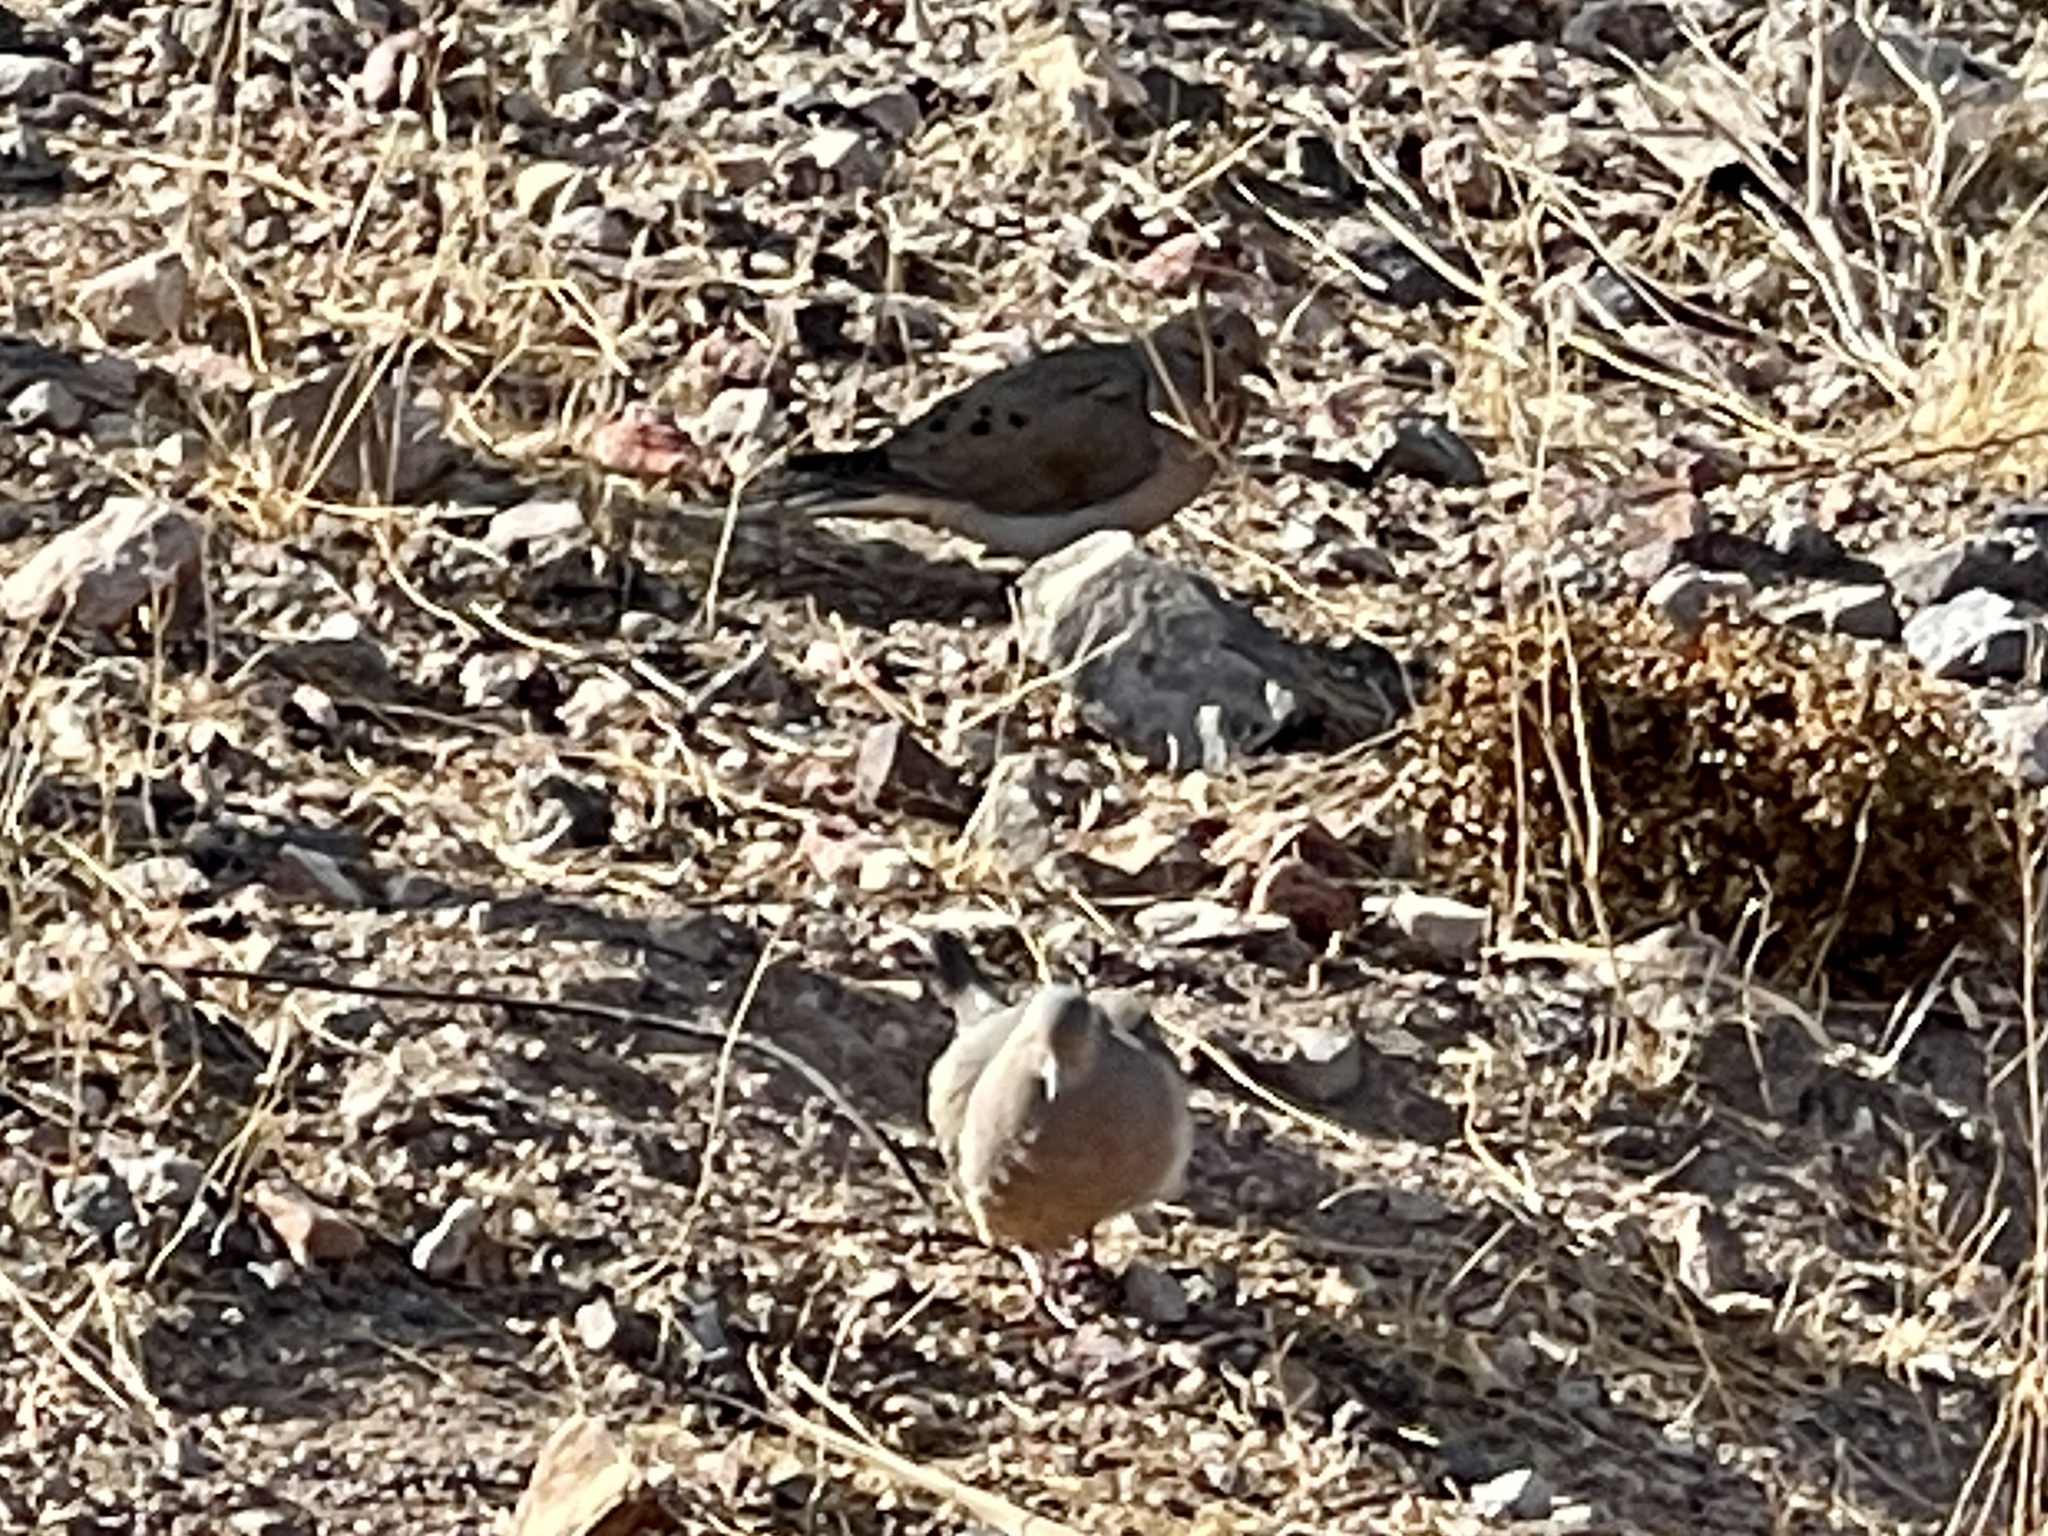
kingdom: Animalia
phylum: Chordata
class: Aves
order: Columbiformes
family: Columbidae
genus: Zenaida
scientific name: Zenaida macroura
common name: Mourning dove
